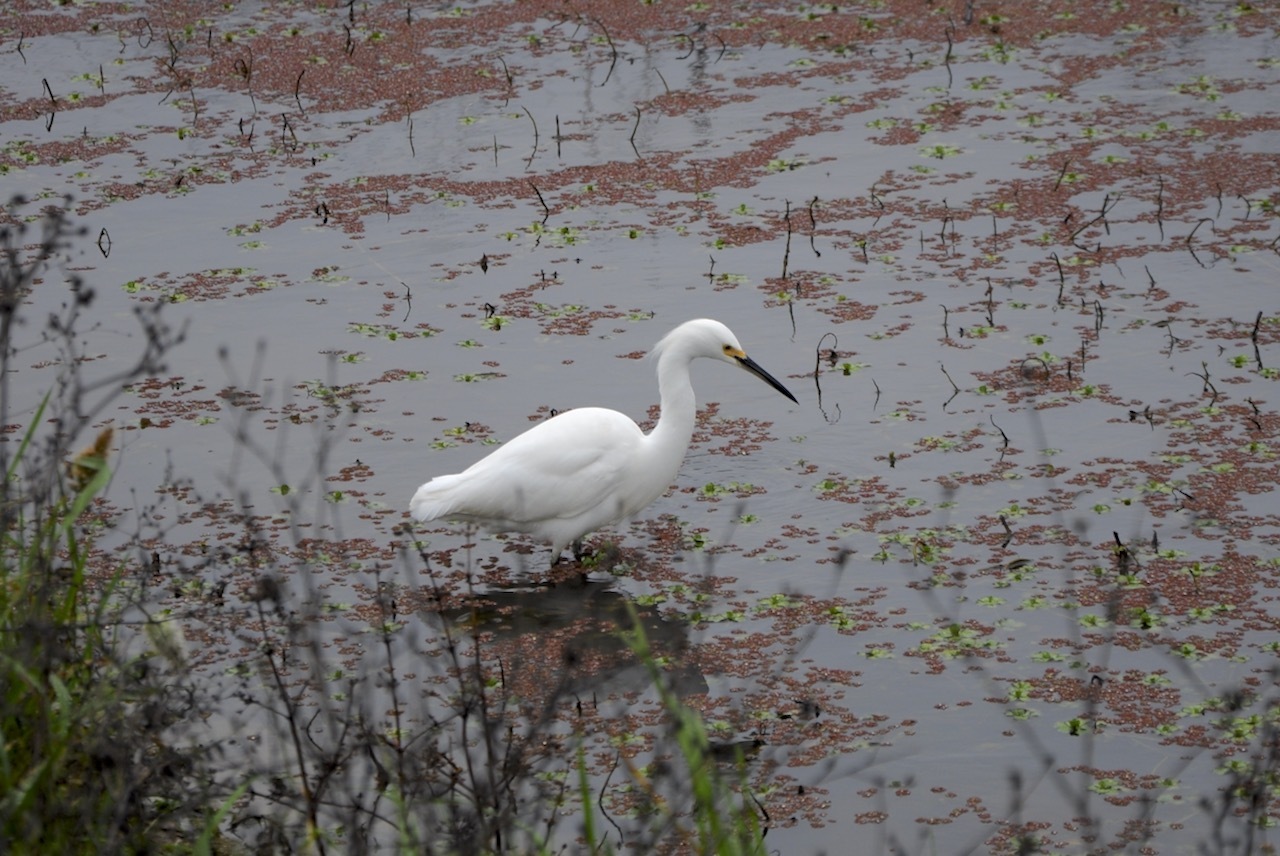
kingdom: Animalia
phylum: Chordata
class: Aves
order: Pelecaniformes
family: Ardeidae
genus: Egretta
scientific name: Egretta thula
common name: Snowy egret
